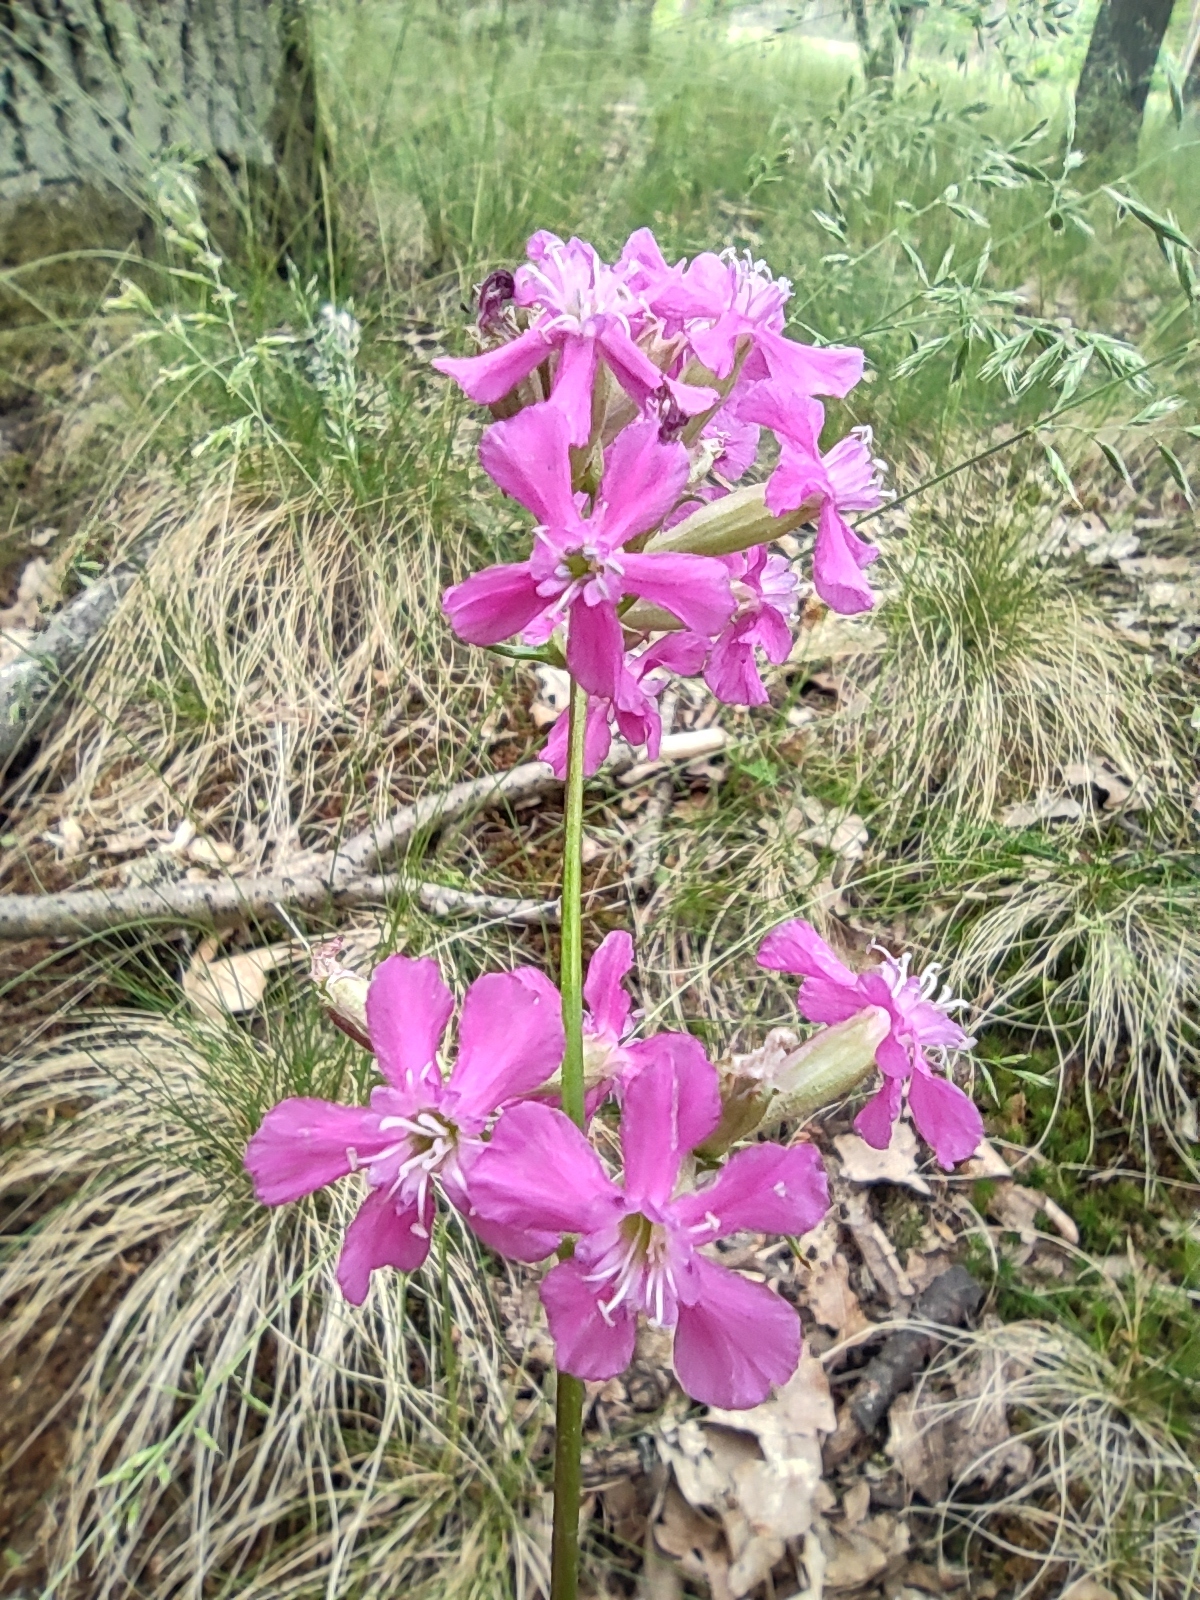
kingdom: Plantae
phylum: Tracheophyta
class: Magnoliopsida
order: Caryophyllales
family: Caryophyllaceae
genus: Viscaria
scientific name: Viscaria vulgaris
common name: Clammy campion
